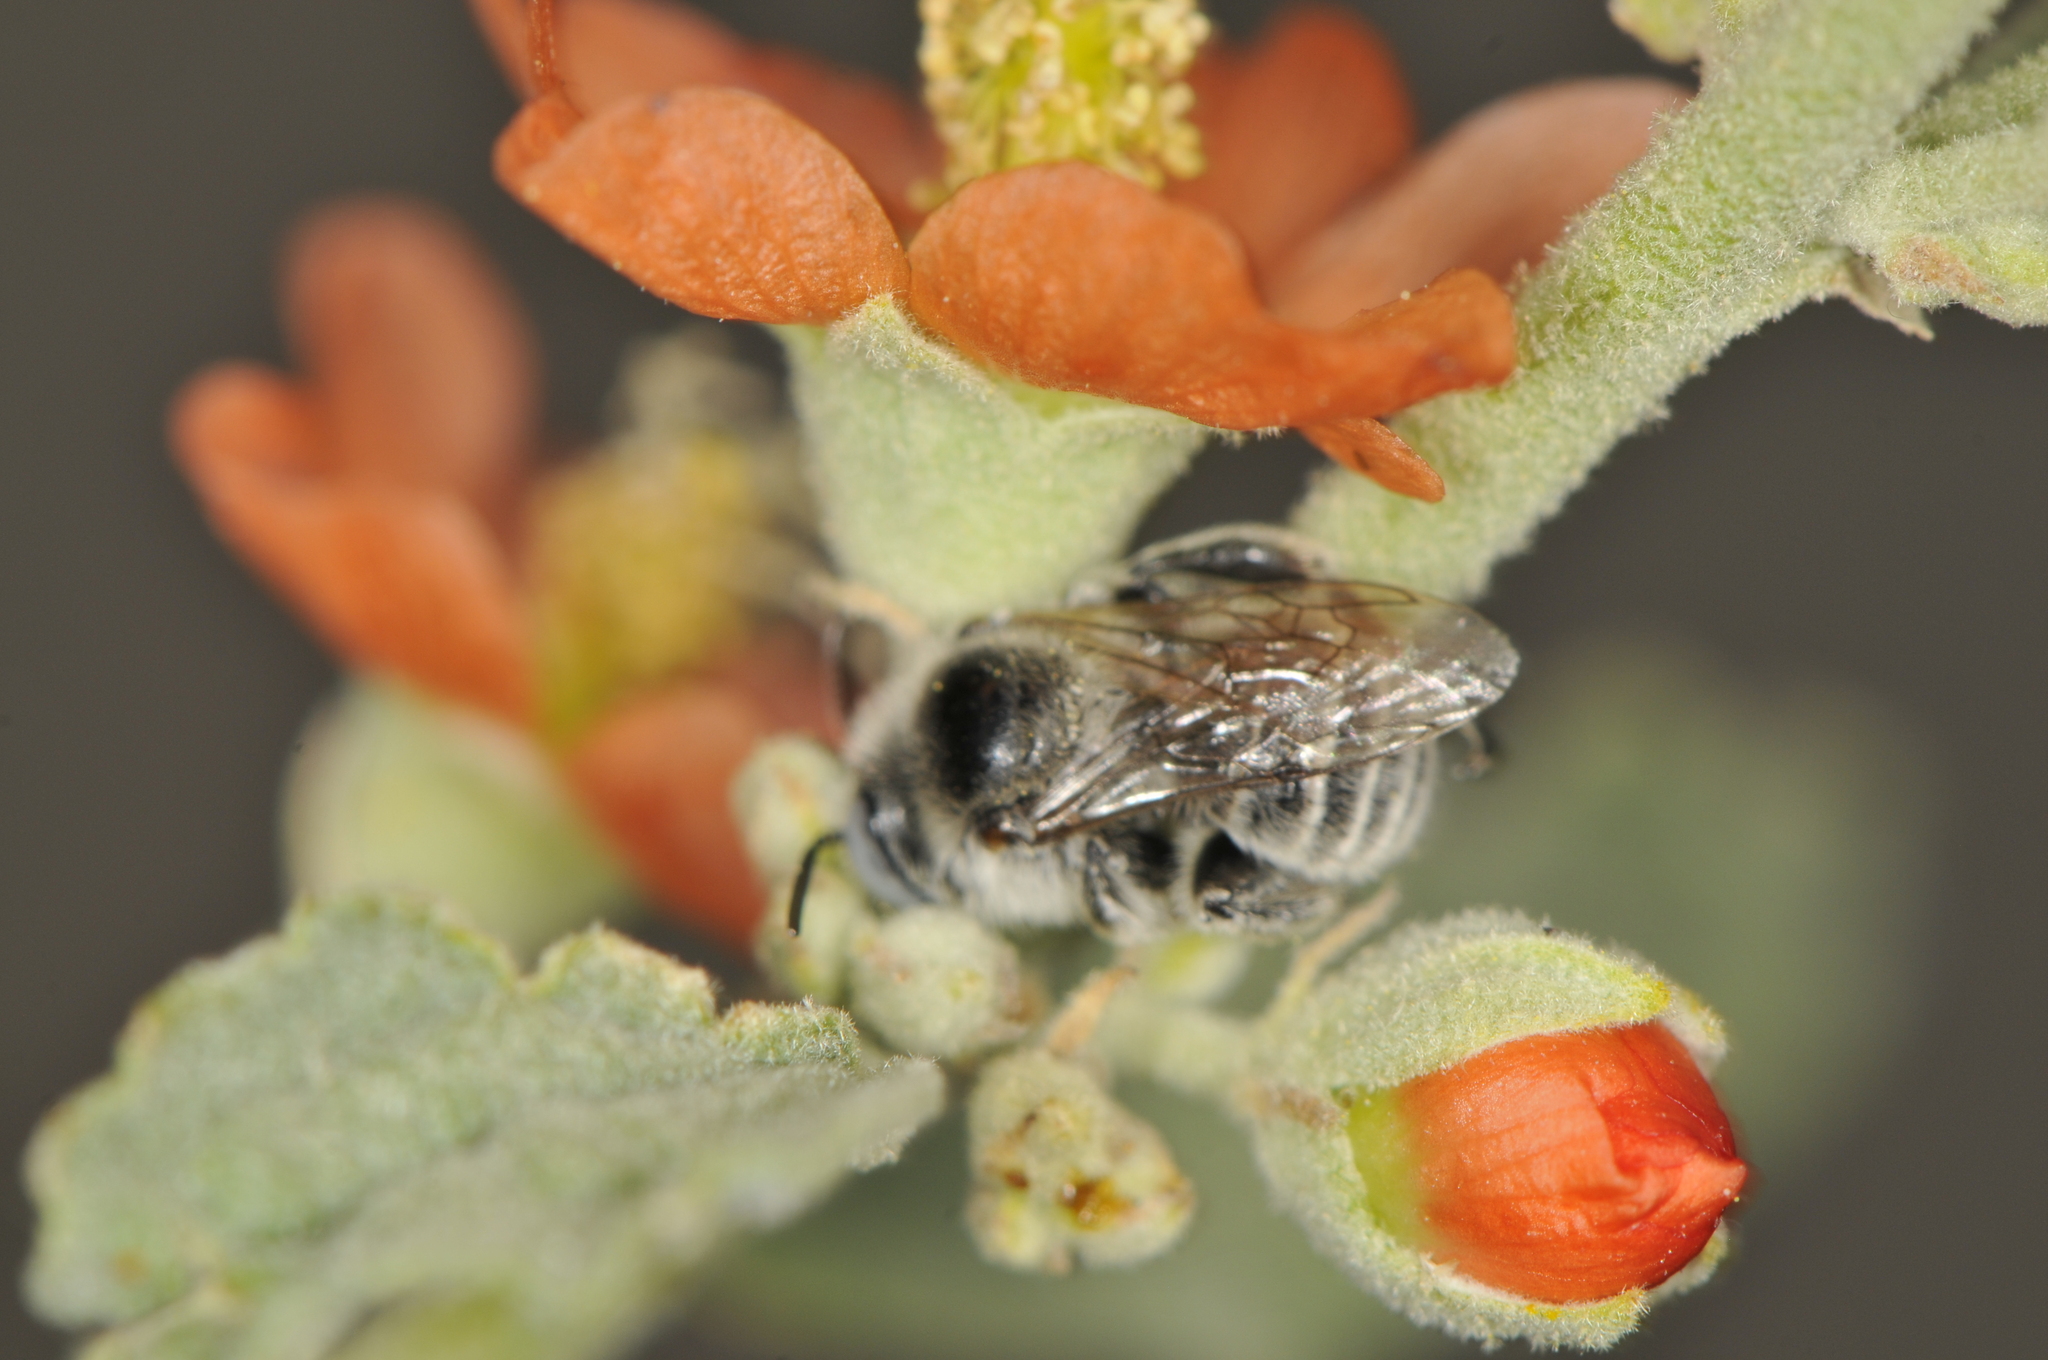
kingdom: Animalia
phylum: Arthropoda
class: Insecta
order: Hymenoptera
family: Apidae
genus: Diadasia
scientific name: Diadasia
